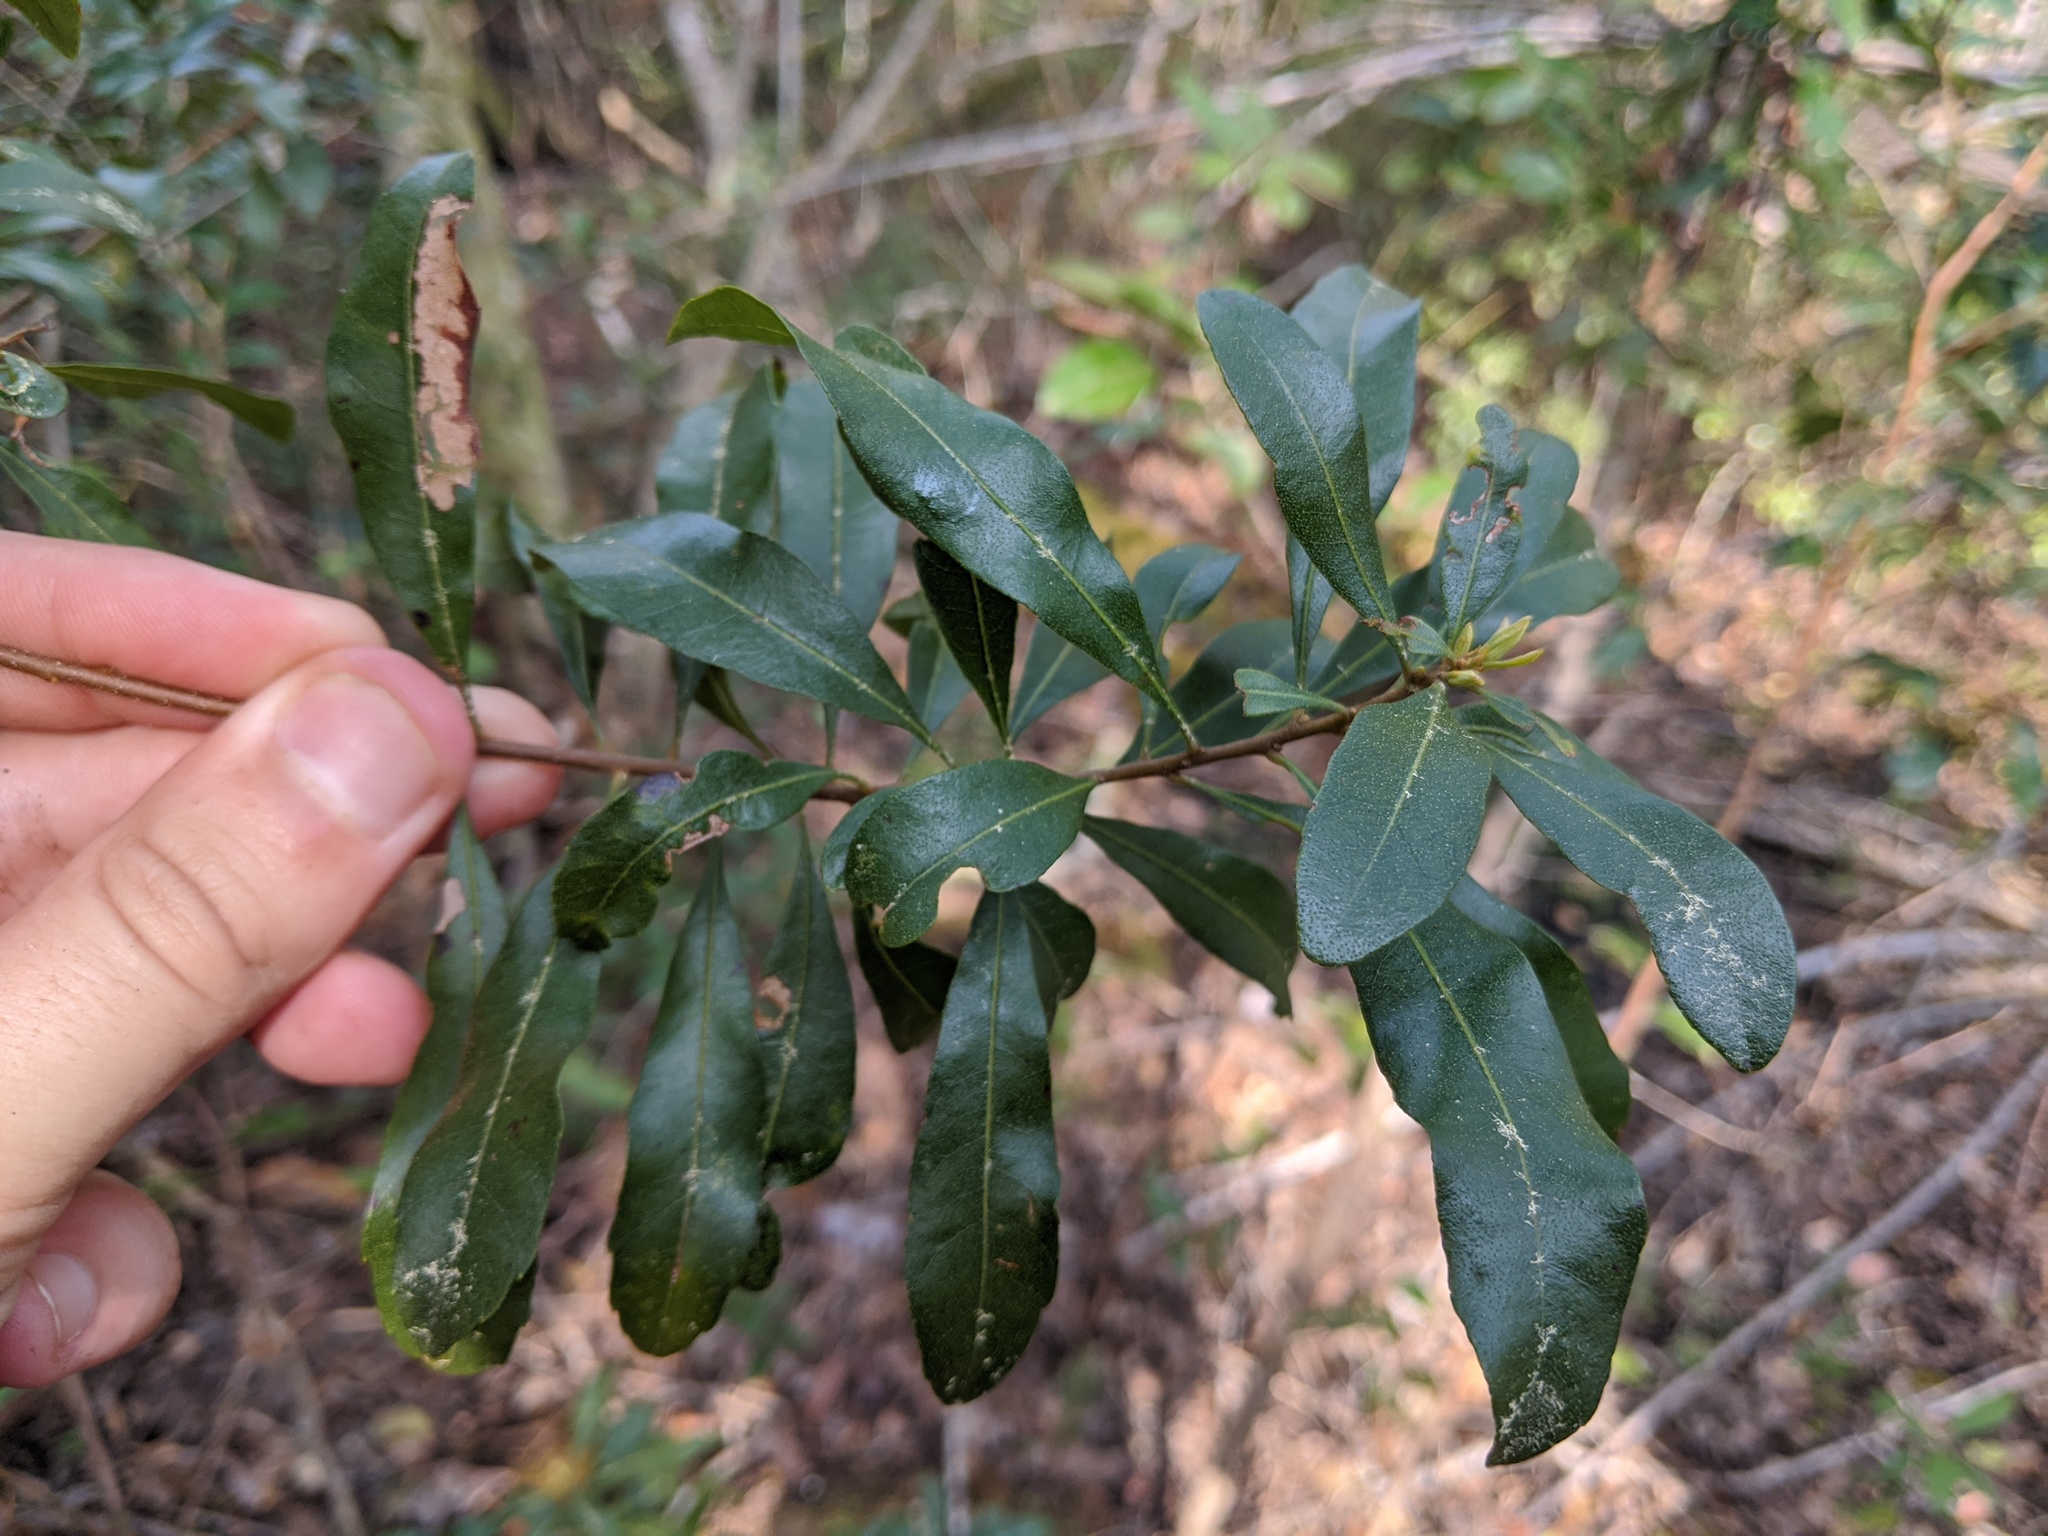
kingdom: Plantae
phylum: Tracheophyta
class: Magnoliopsida
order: Fagales
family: Myricaceae
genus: Morella
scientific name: Morella cerifera
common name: Wax myrtle
